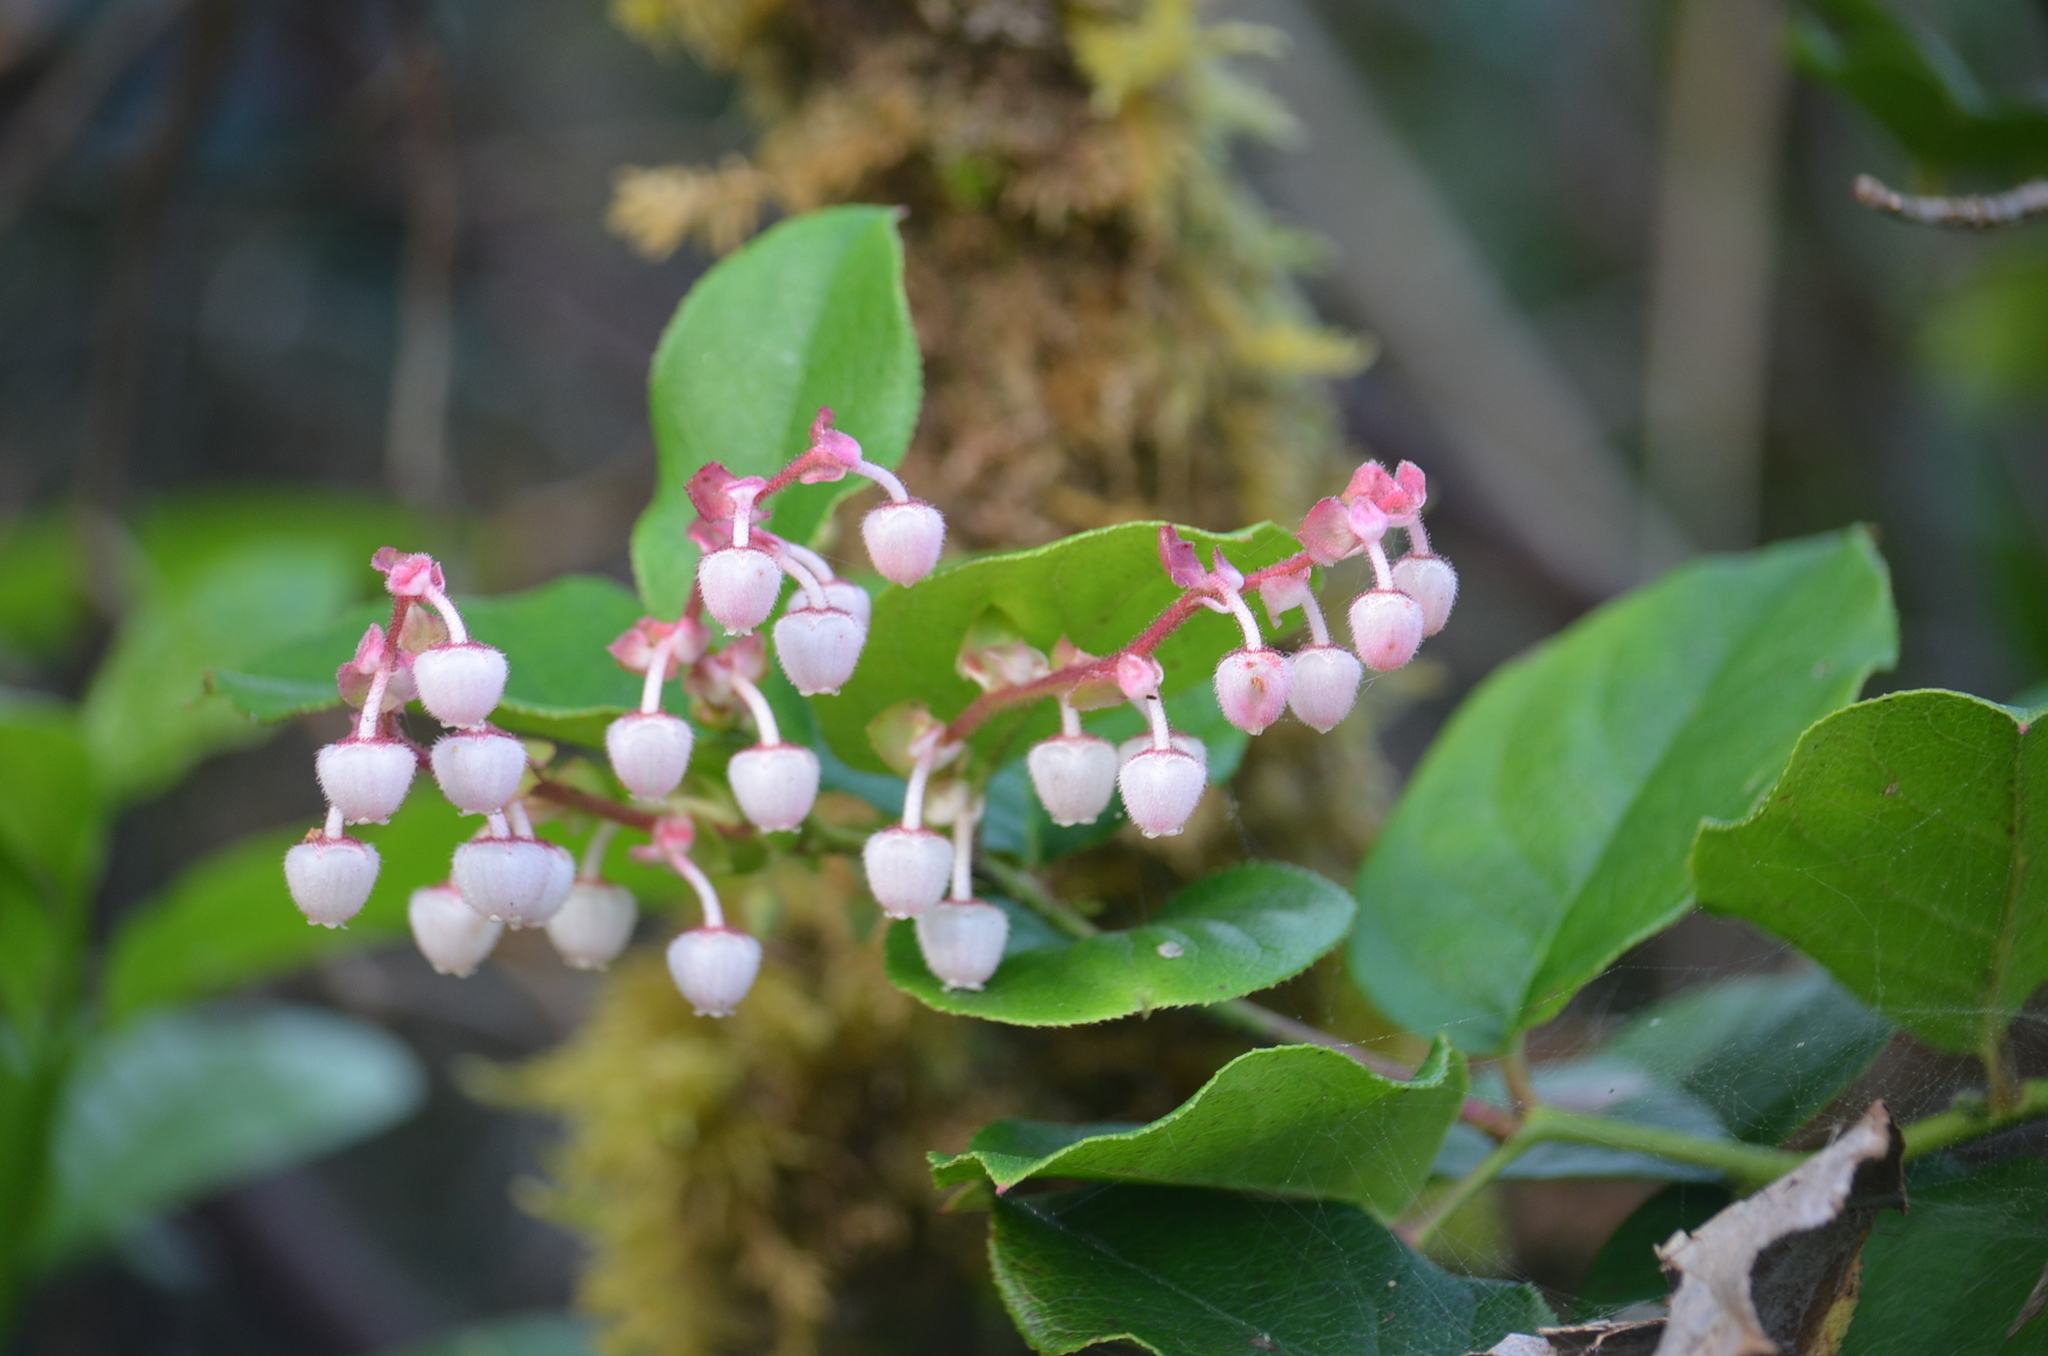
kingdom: Plantae
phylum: Tracheophyta
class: Magnoliopsida
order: Ericales
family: Ericaceae
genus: Gaultheria
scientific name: Gaultheria shallon
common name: Shallon
